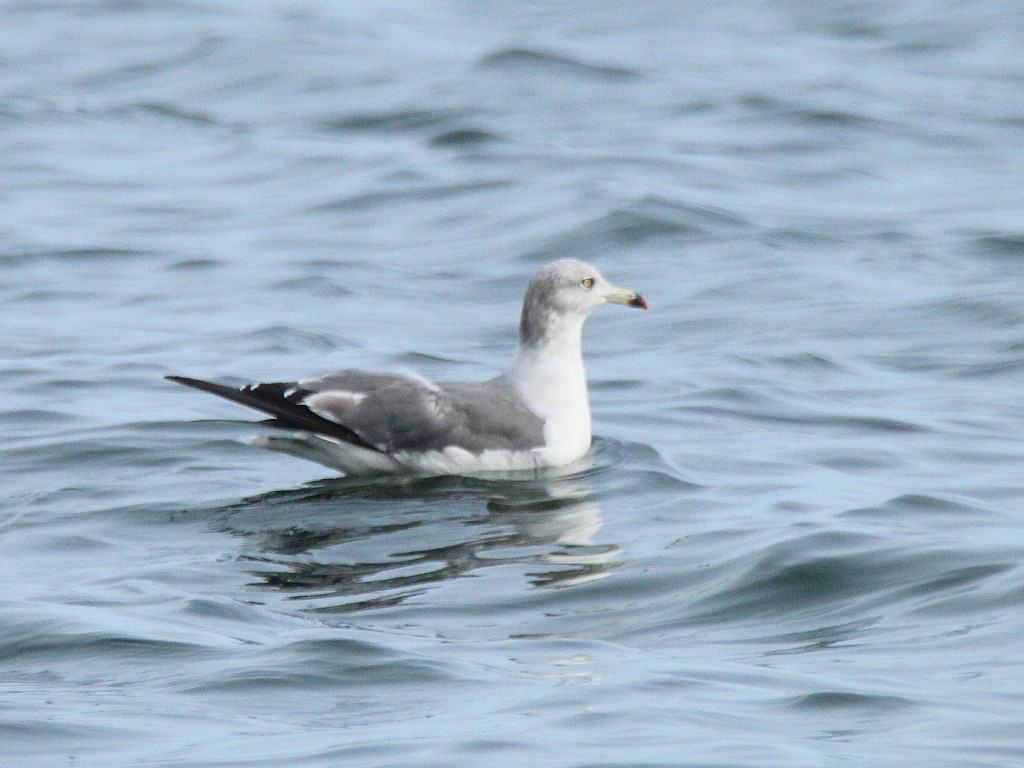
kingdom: Animalia
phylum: Chordata
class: Aves
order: Charadriiformes
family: Laridae
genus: Larus
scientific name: Larus crassirostris
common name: Black-tailed gull
